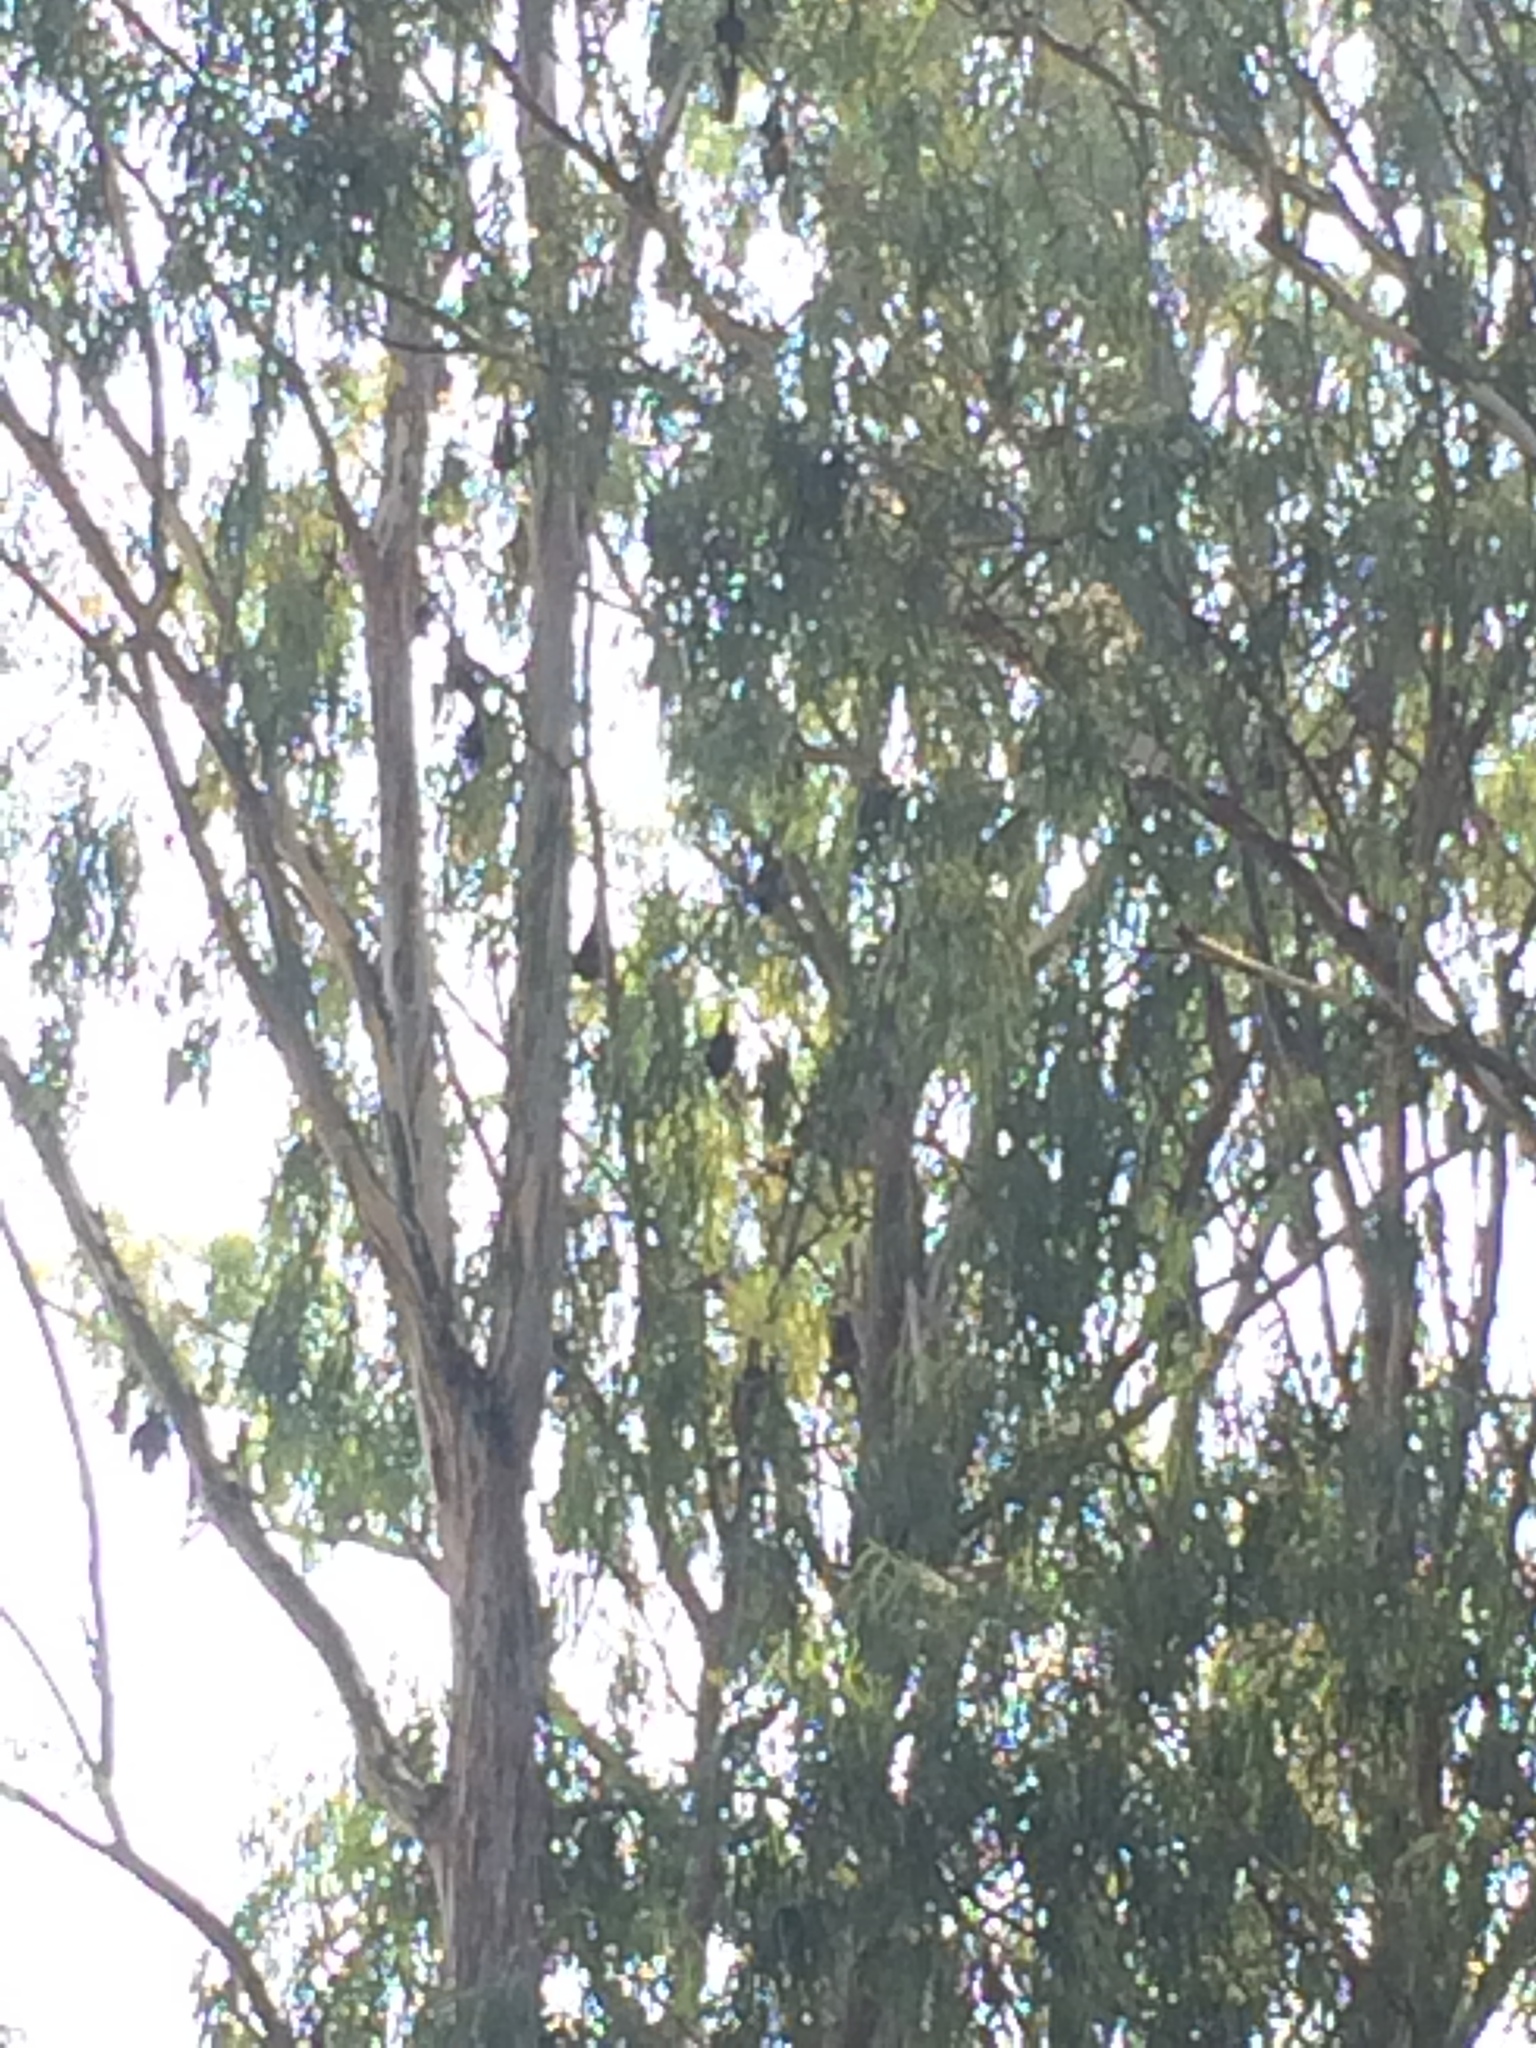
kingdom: Animalia
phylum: Chordata
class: Mammalia
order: Chiroptera
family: Pteropodidae
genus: Pteropus
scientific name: Pteropus vampyrus
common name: Large flying fox
